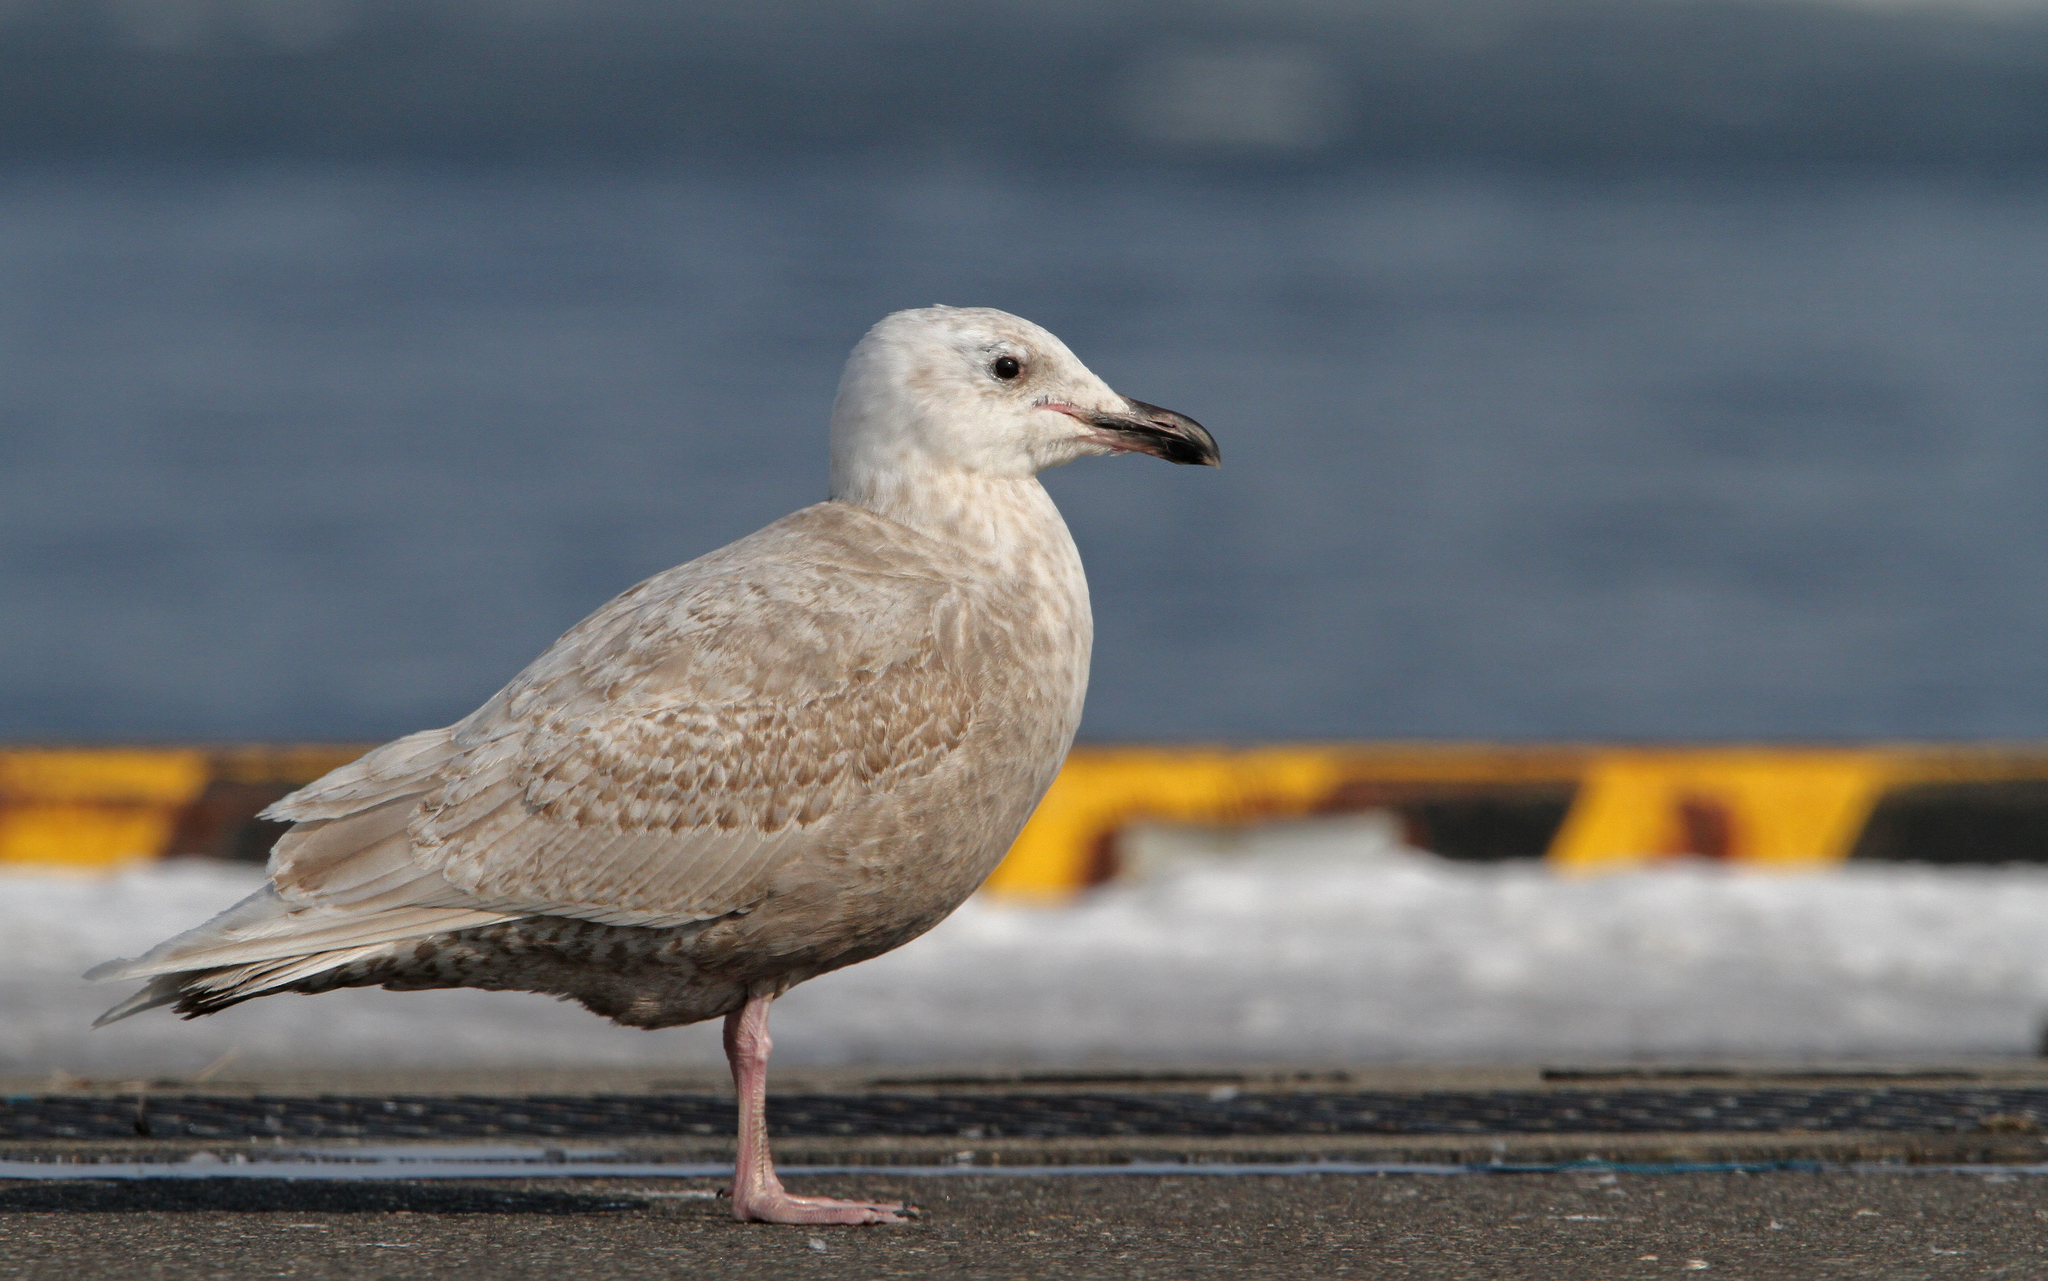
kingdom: Animalia
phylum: Chordata
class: Aves
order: Charadriiformes
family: Laridae
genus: Larus
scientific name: Larus glaucescens
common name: Glaucous-winged gull
